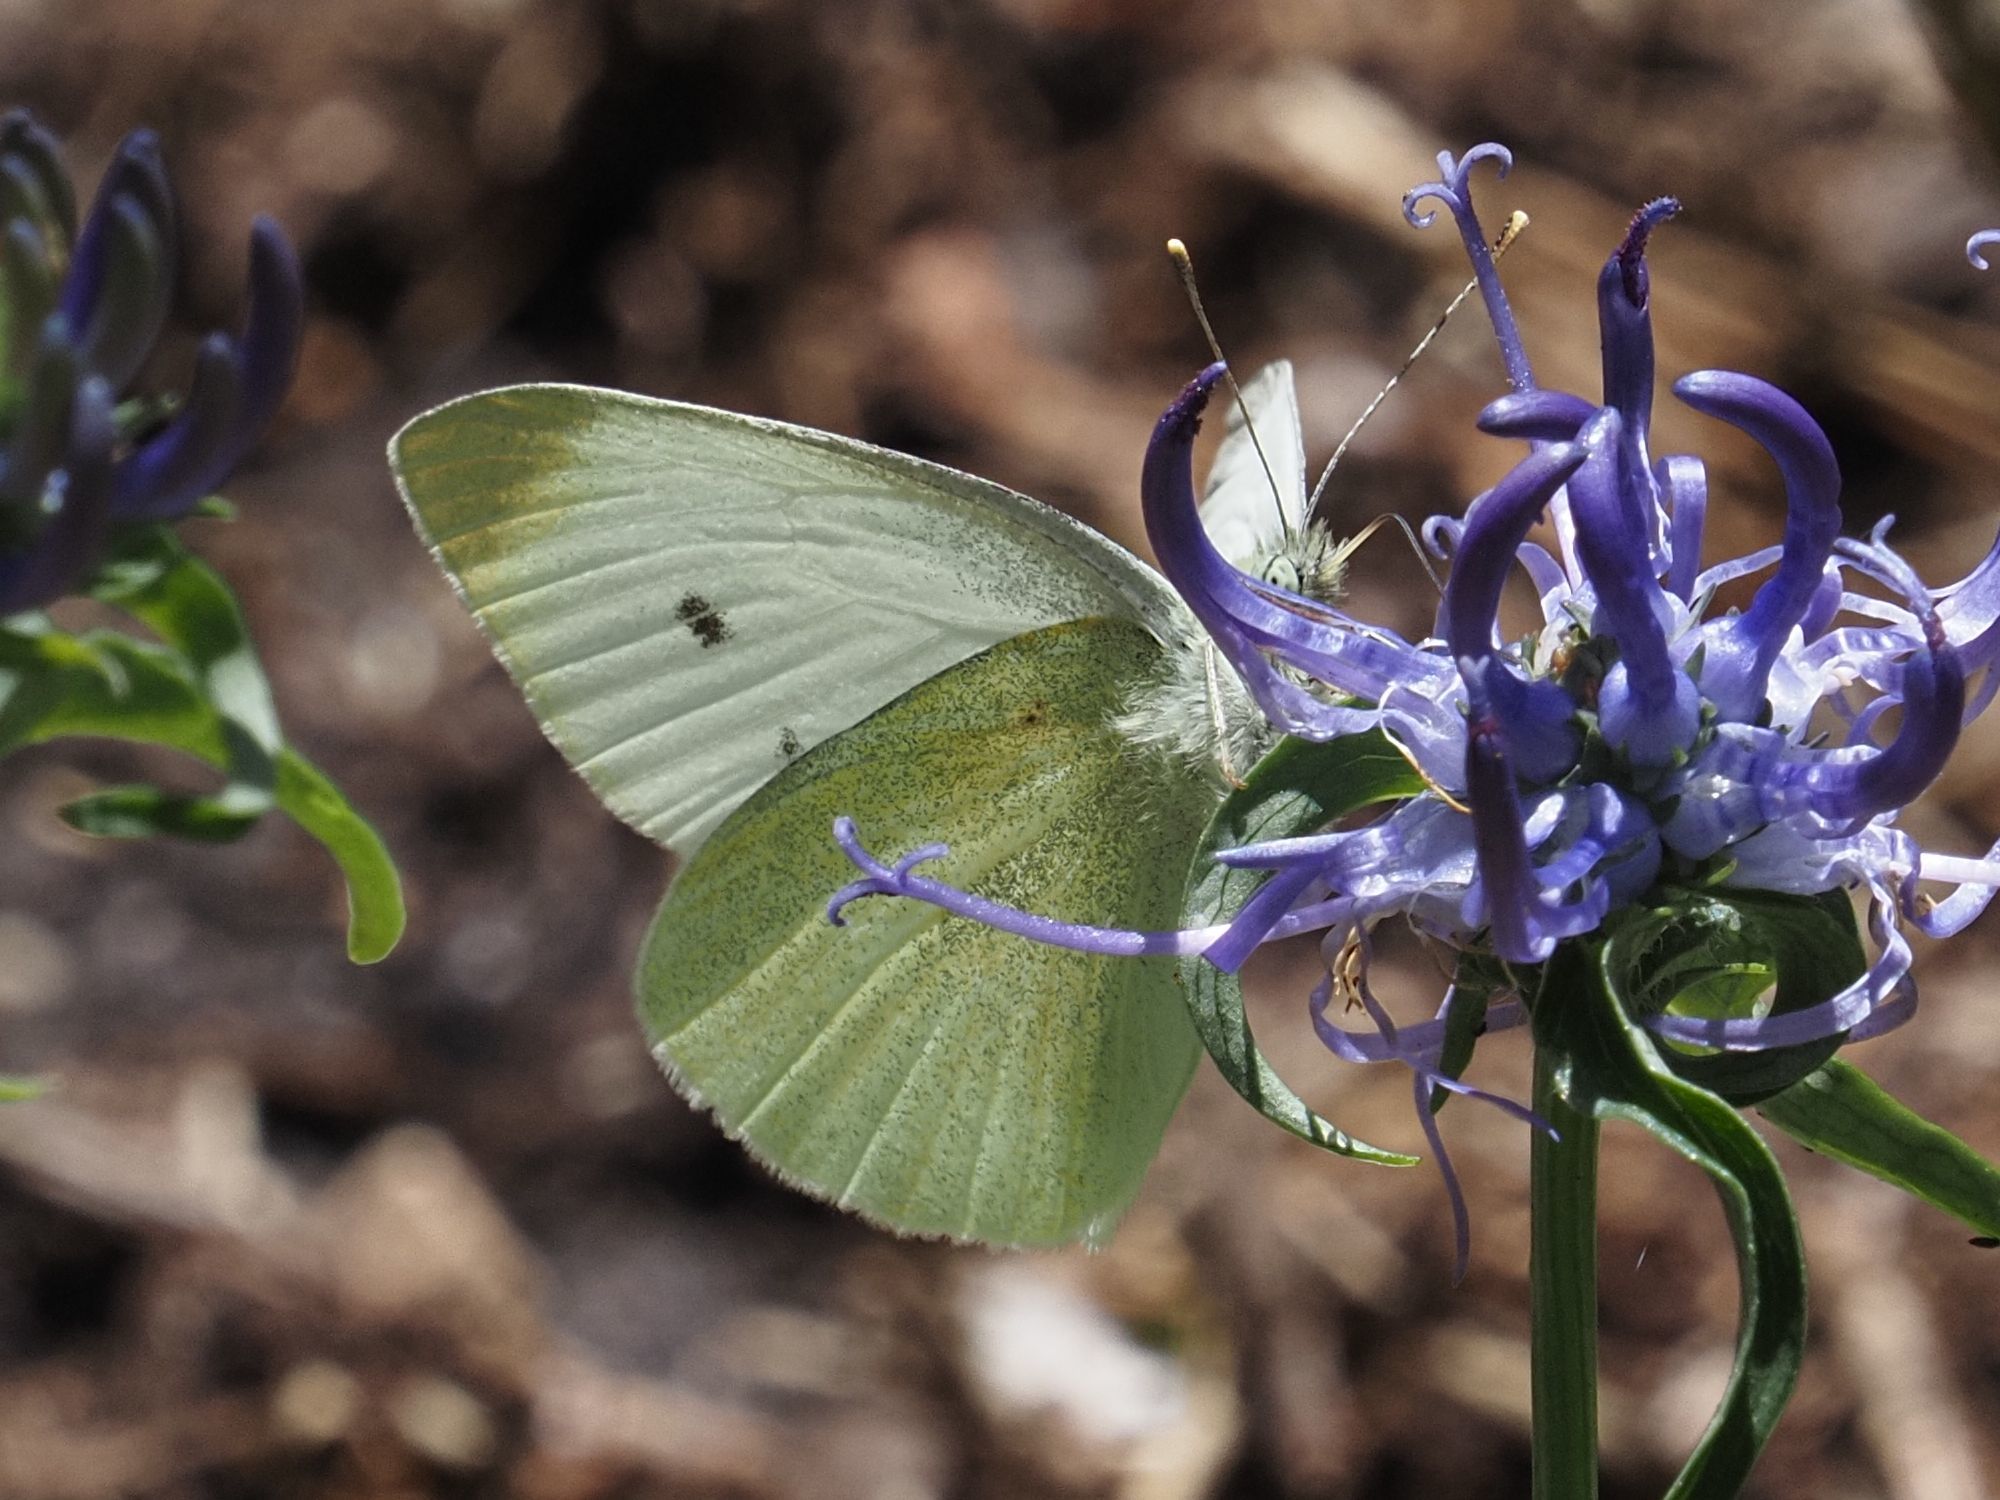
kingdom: Animalia
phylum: Arthropoda
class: Insecta
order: Lepidoptera
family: Pieridae
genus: Pieris
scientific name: Pieris rapae
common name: Small white
